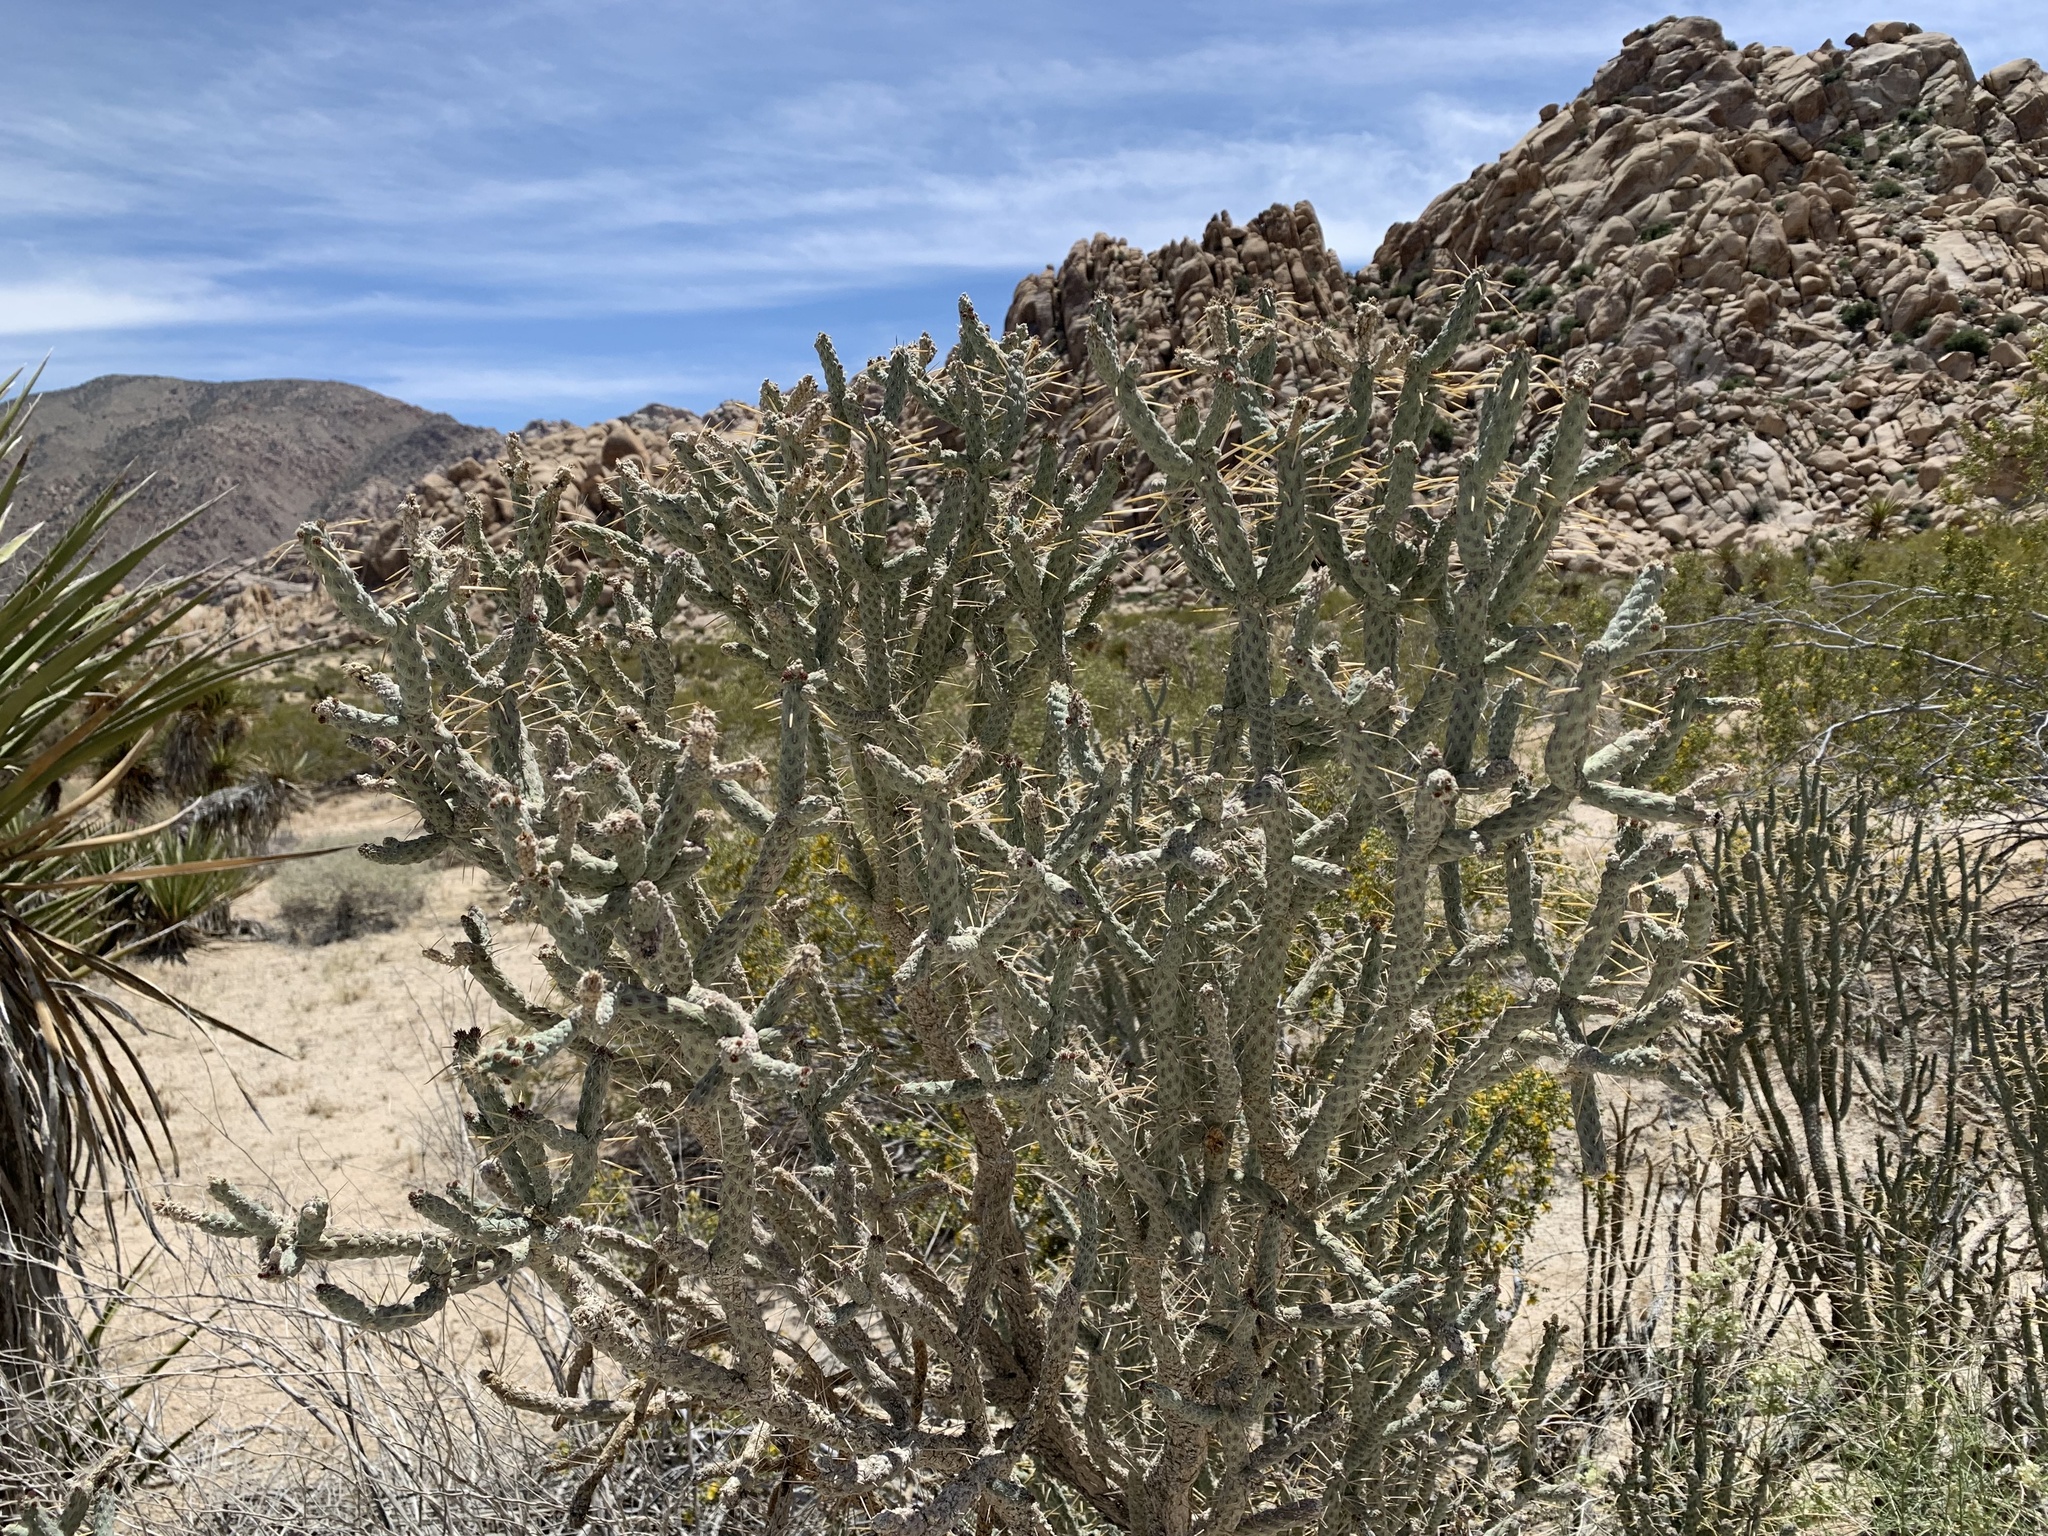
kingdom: Plantae
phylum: Tracheophyta
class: Magnoliopsida
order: Caryophyllales
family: Cactaceae
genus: Cylindropuntia
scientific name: Cylindropuntia ramosissima
